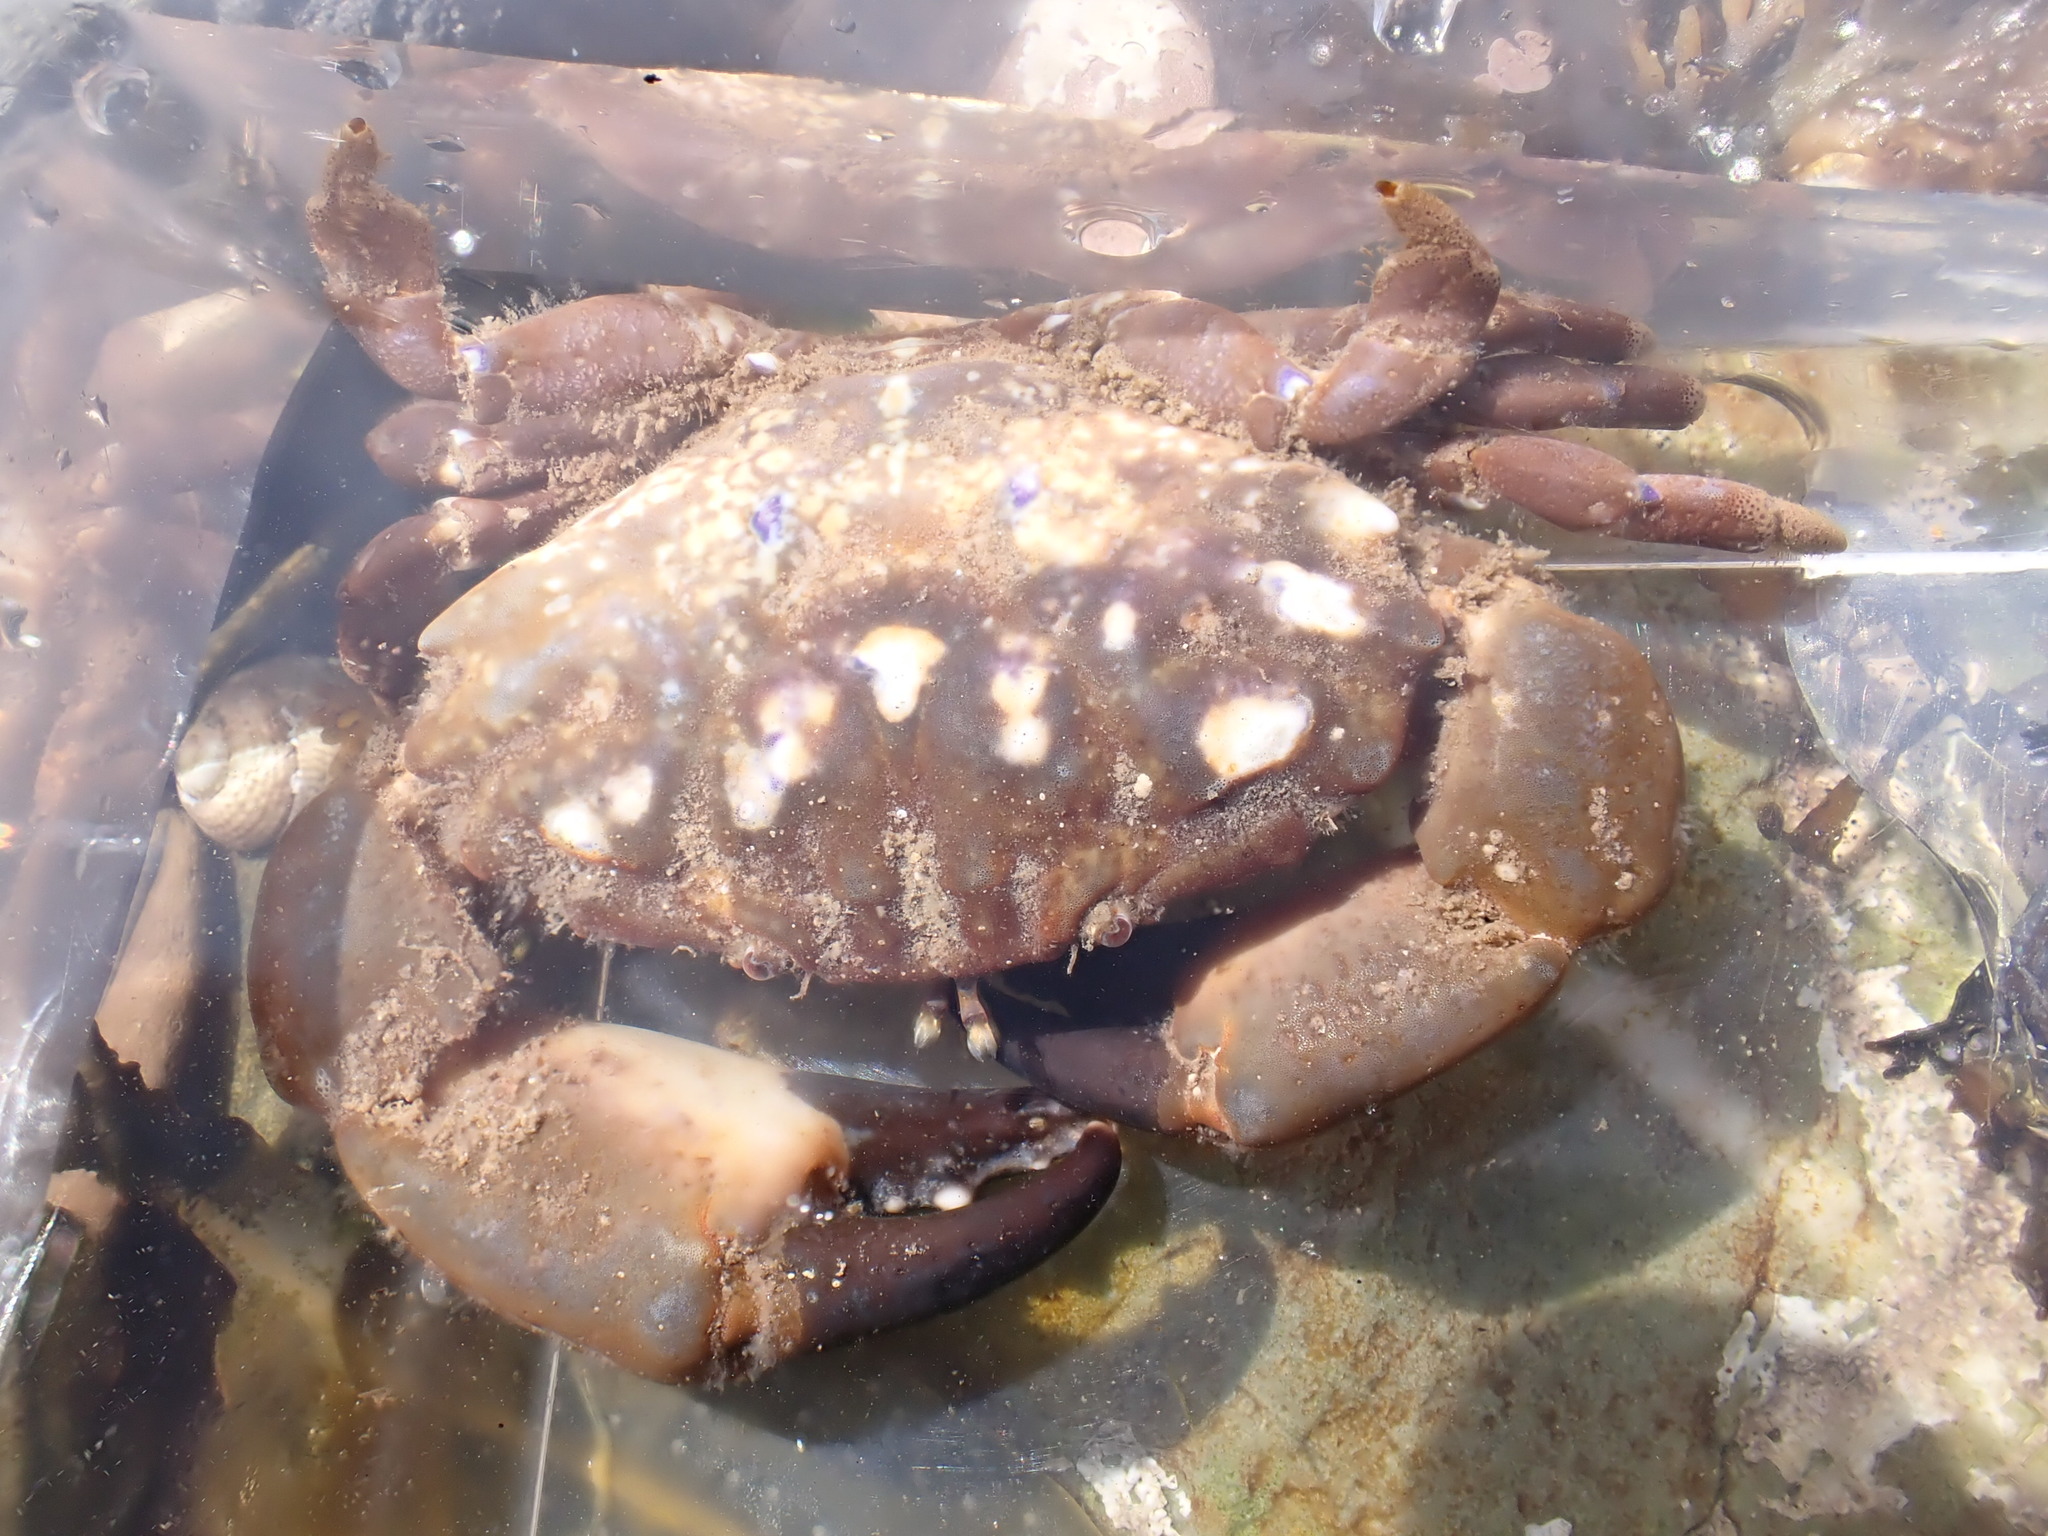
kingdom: Animalia
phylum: Arthropoda
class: Malacostraca
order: Decapoda
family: Xanthidae
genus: Xantho
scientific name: Xantho hydrophilus
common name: Montagu's crab
